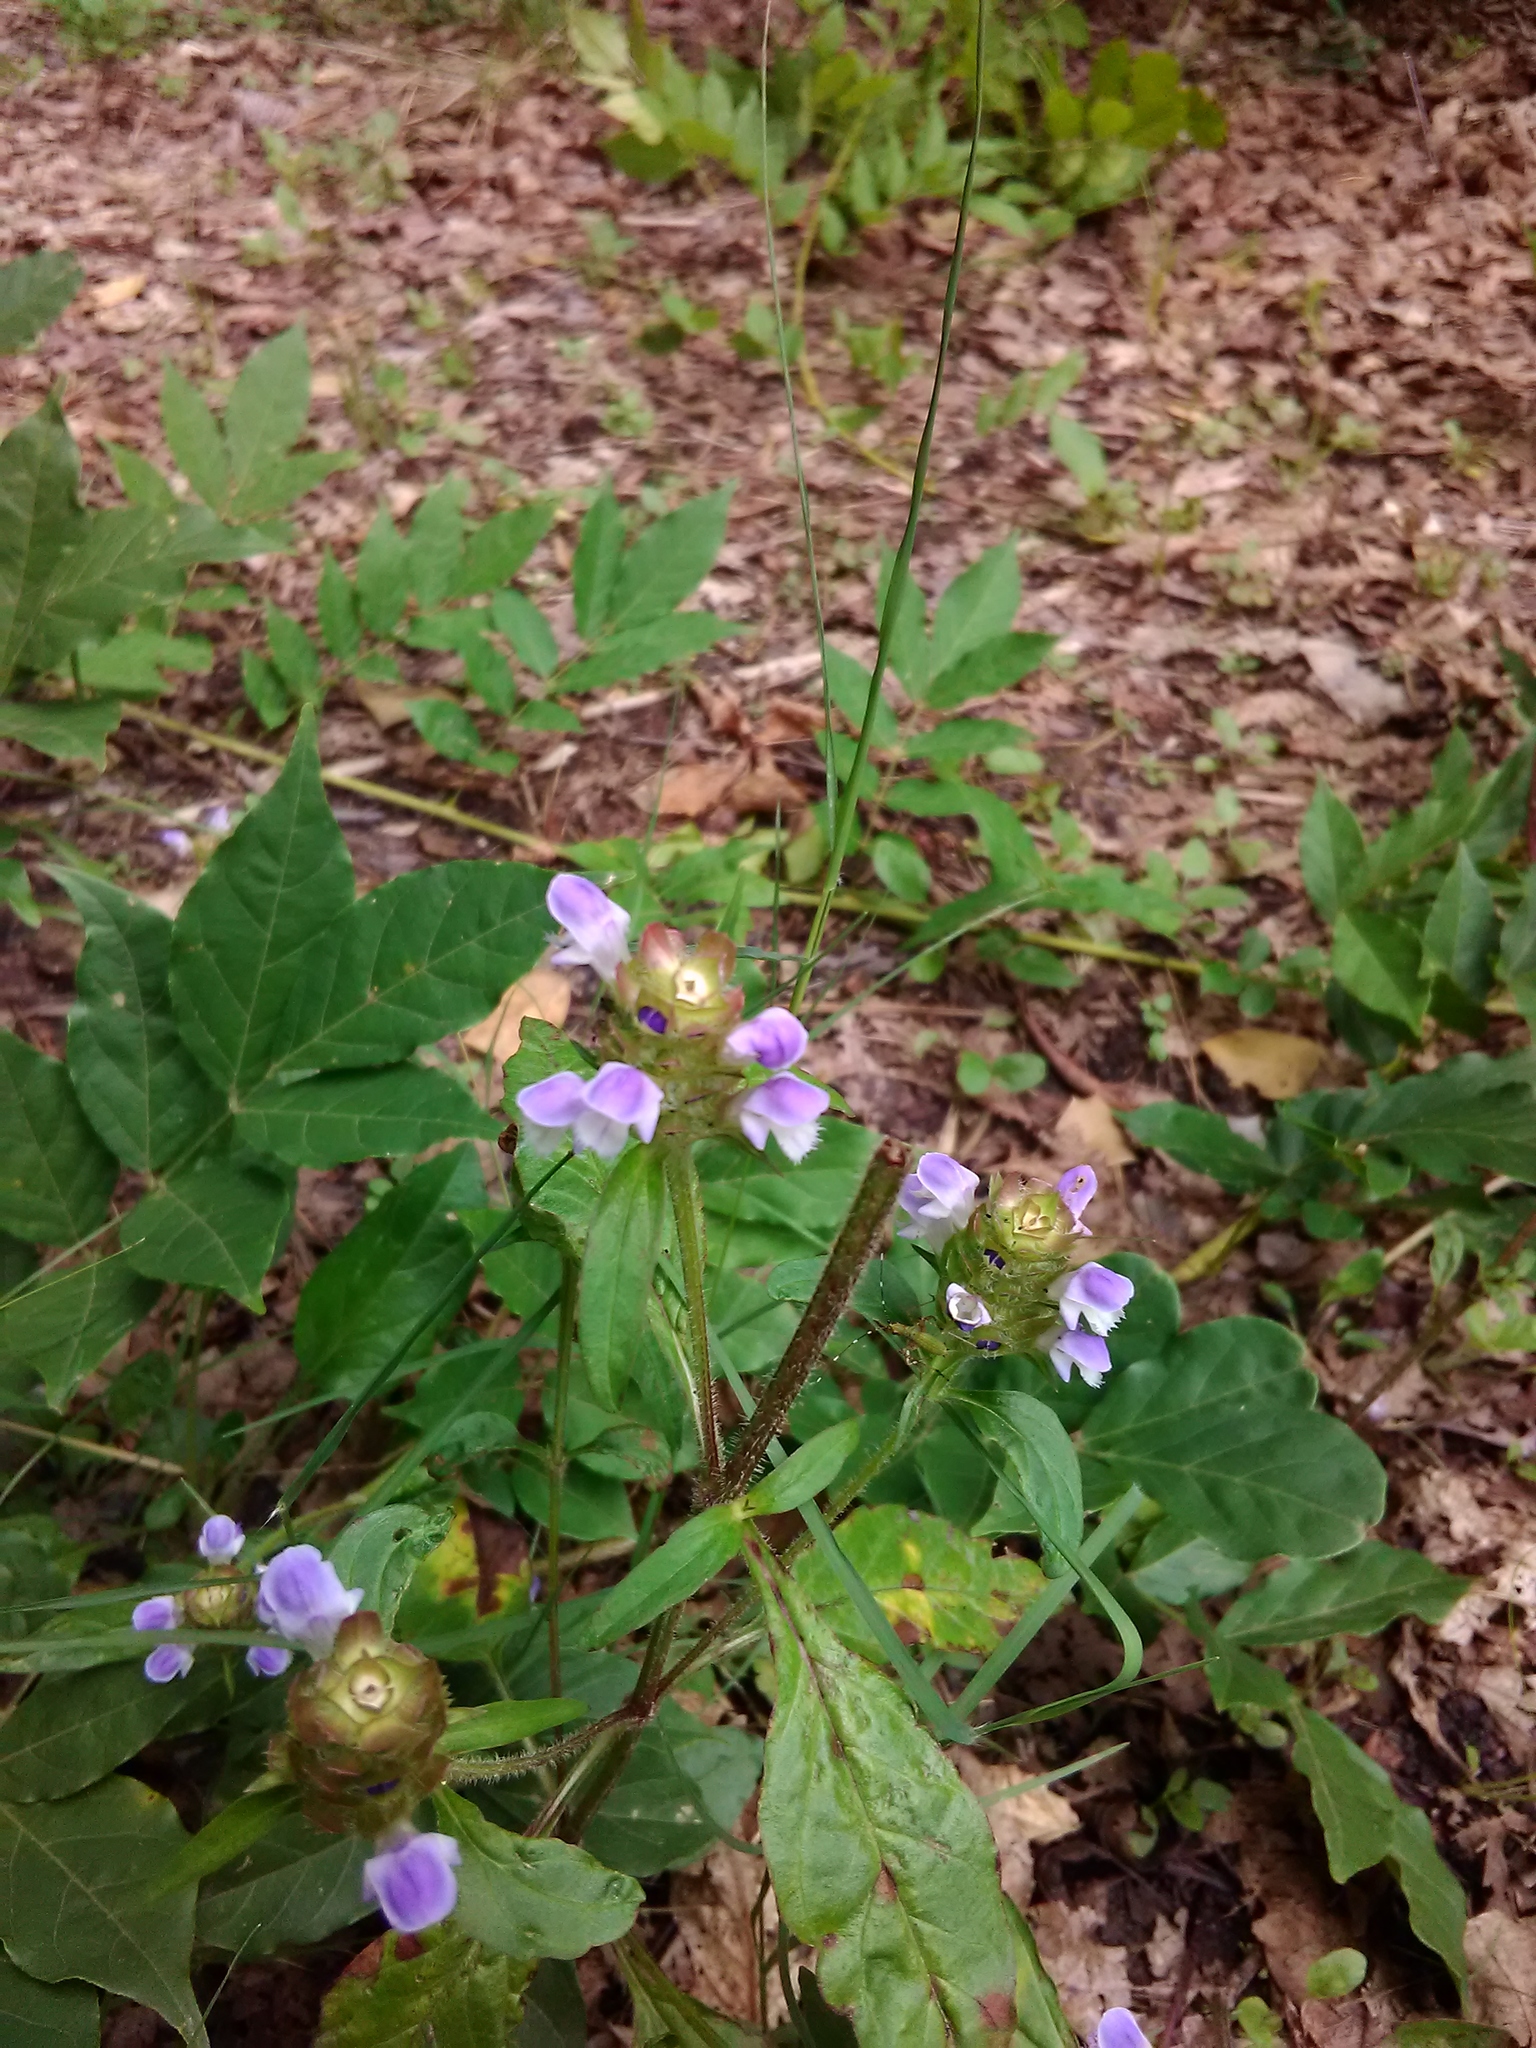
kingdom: Plantae
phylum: Tracheophyta
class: Magnoliopsida
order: Lamiales
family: Lamiaceae
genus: Prunella
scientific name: Prunella vulgaris
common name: Heal-all
